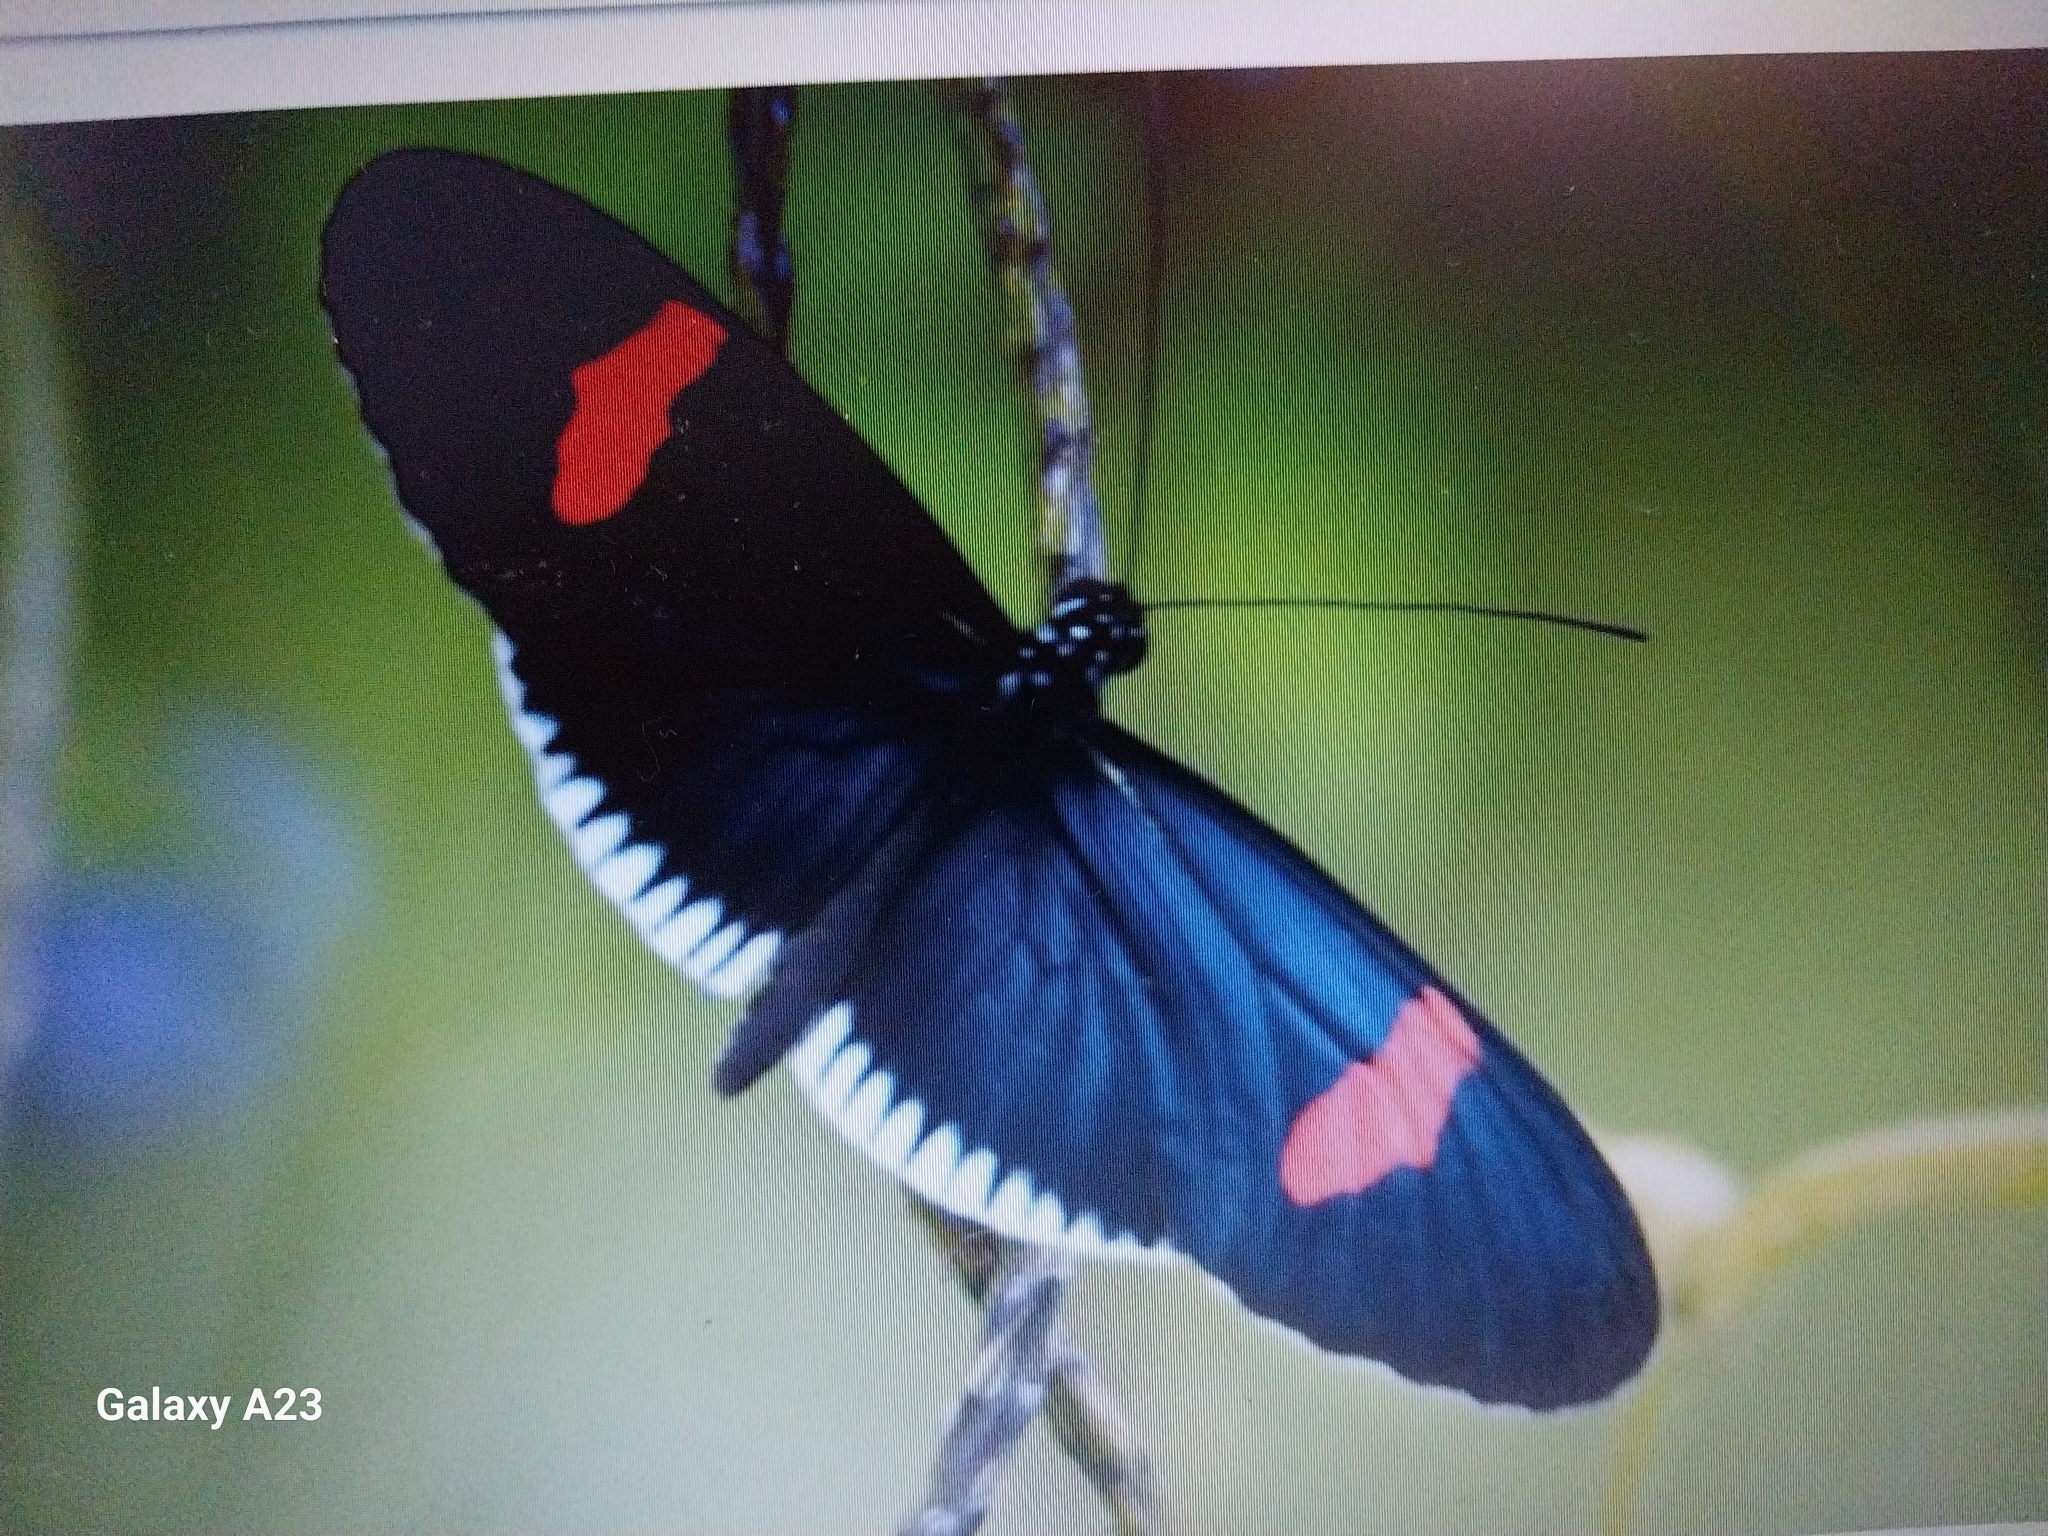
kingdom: Animalia
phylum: Arthropoda
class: Insecta
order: Lepidoptera
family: Nymphalidae
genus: Heliconius
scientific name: Heliconius erato
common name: Common patch longwing
